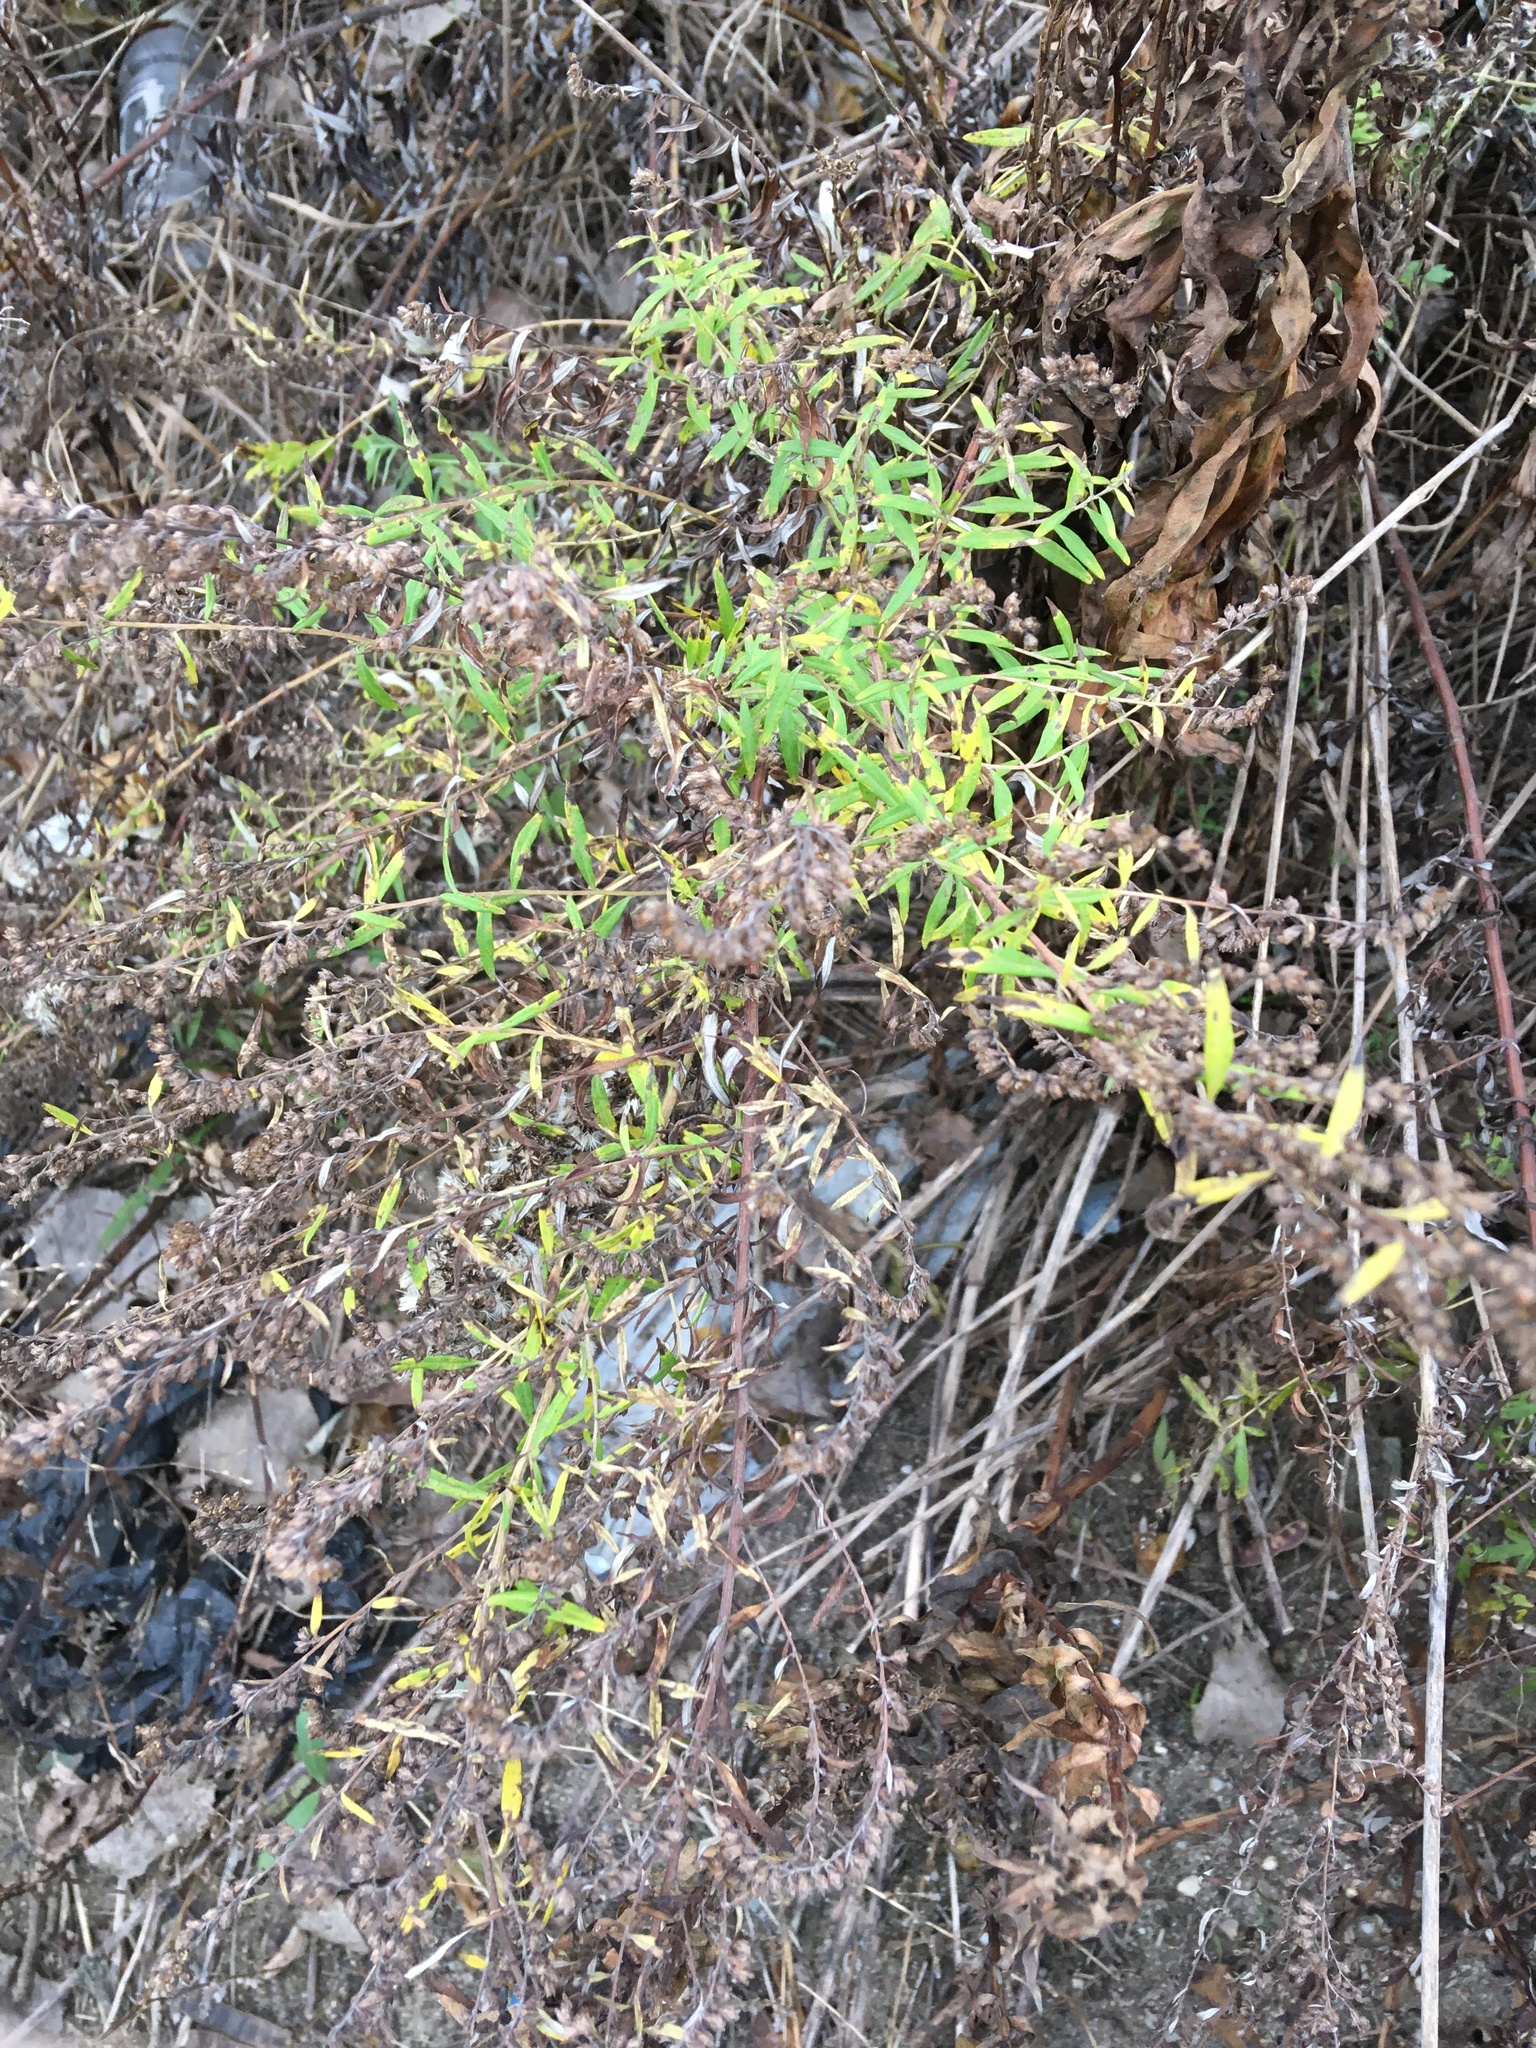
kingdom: Plantae
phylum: Tracheophyta
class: Magnoliopsida
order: Asterales
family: Asteraceae
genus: Artemisia
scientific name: Artemisia vulgaris
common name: Mugwort
